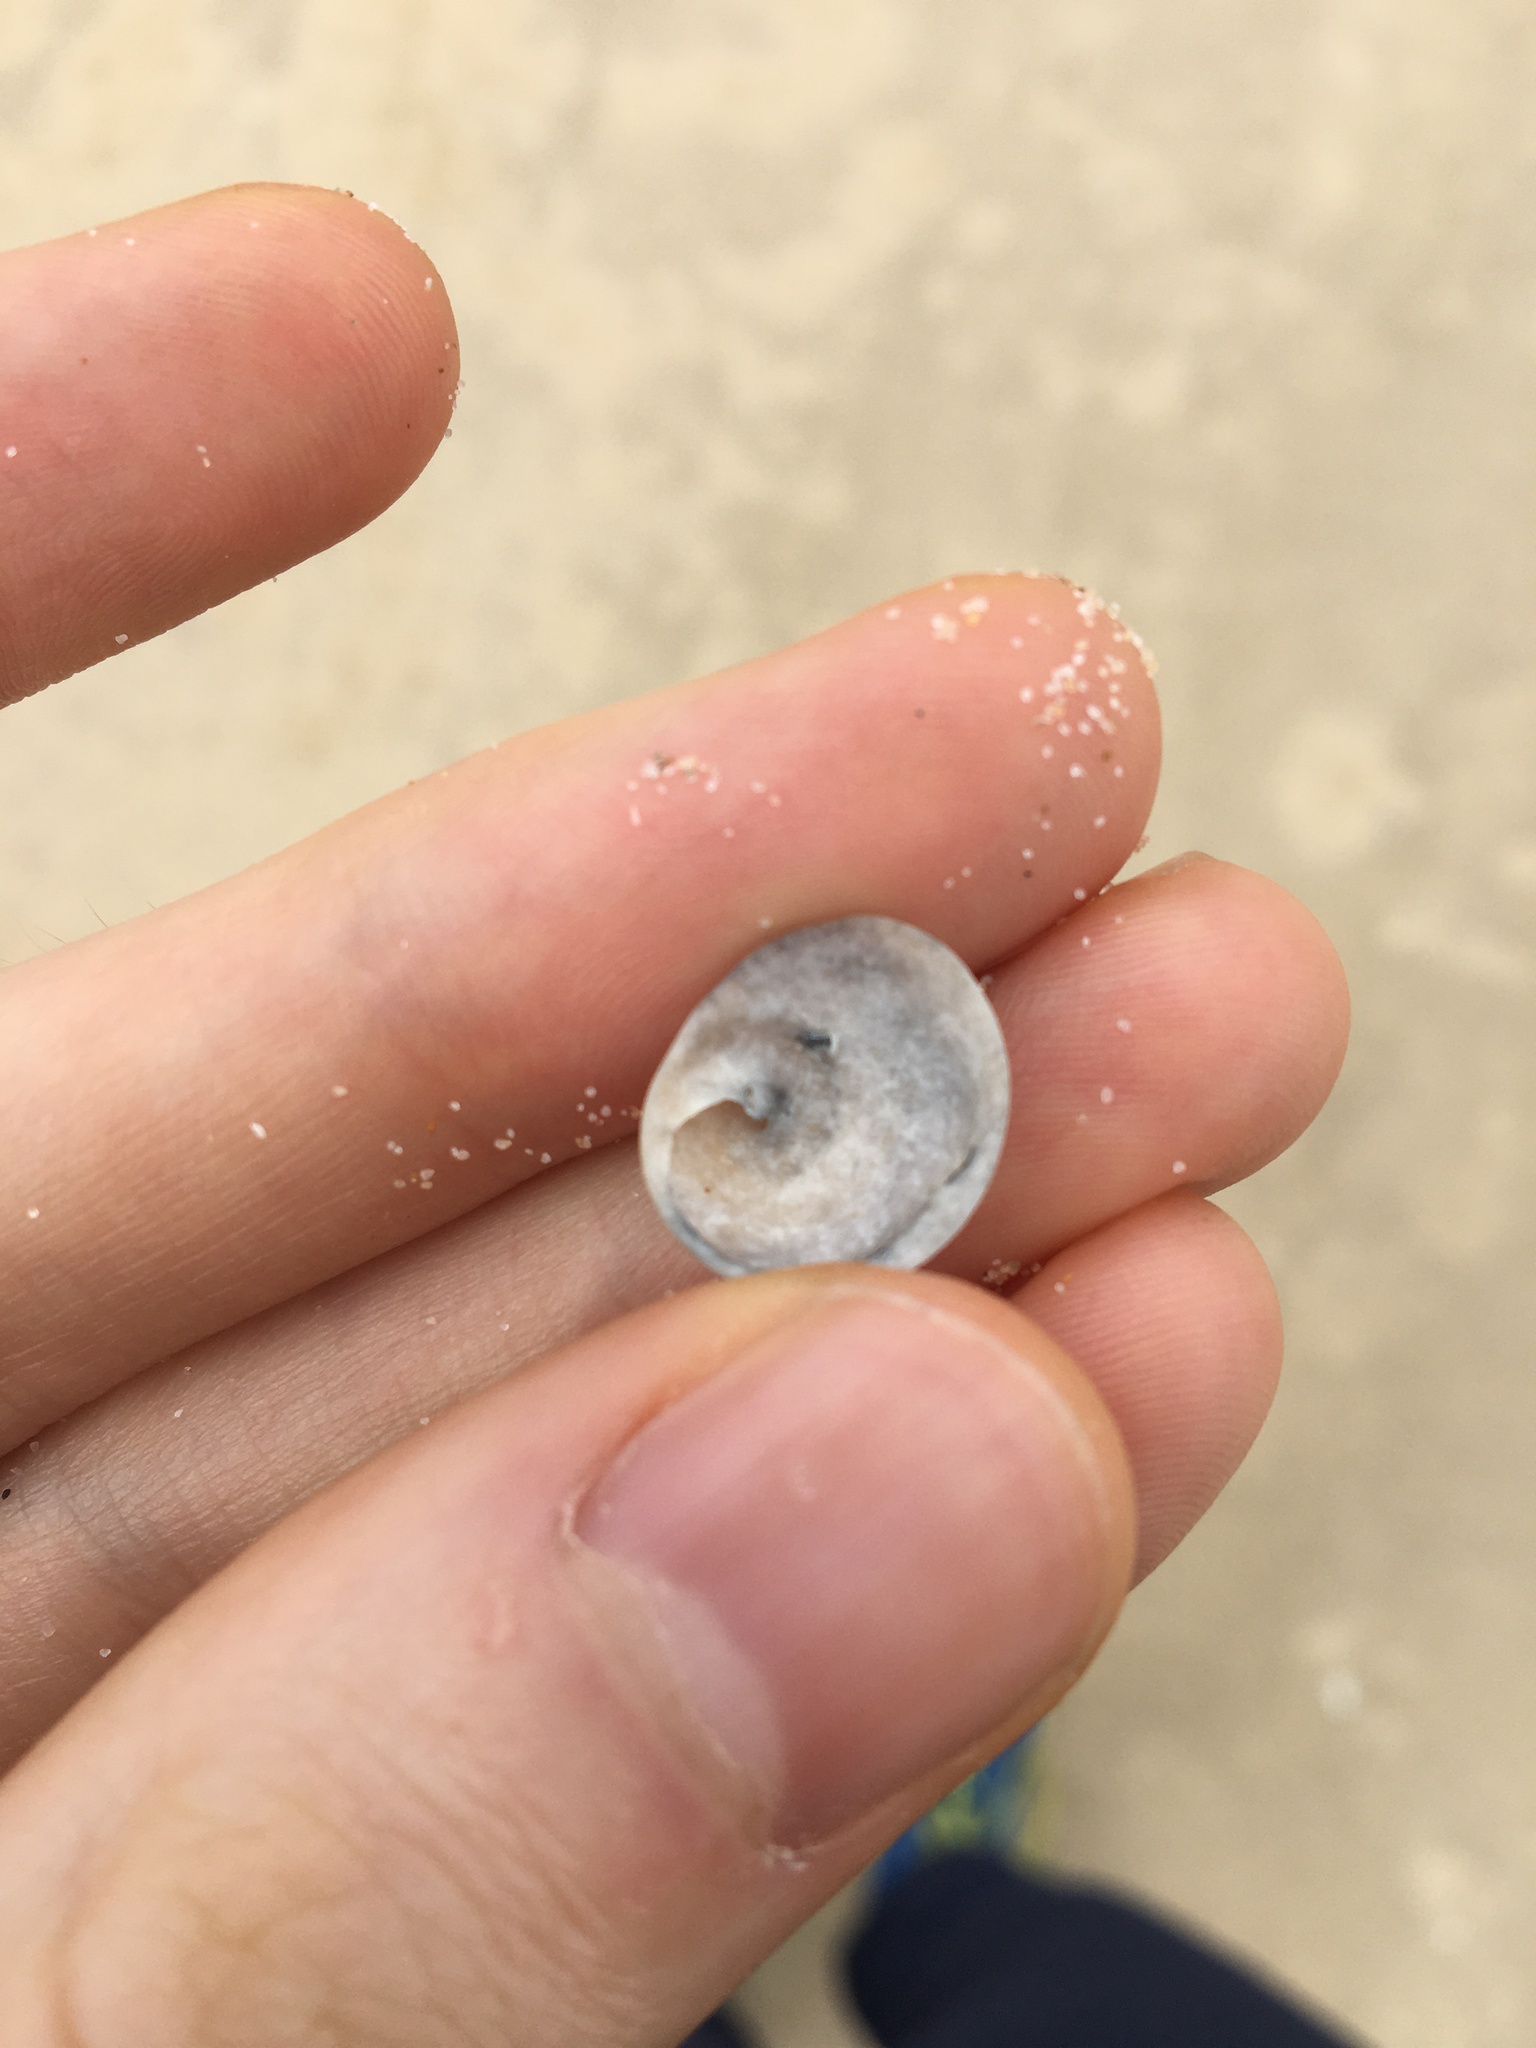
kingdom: Animalia
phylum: Mollusca
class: Gastropoda
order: Littorinimorpha
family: Calyptraeidae
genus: Sigapatella
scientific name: Sigapatella calyptraeformis
